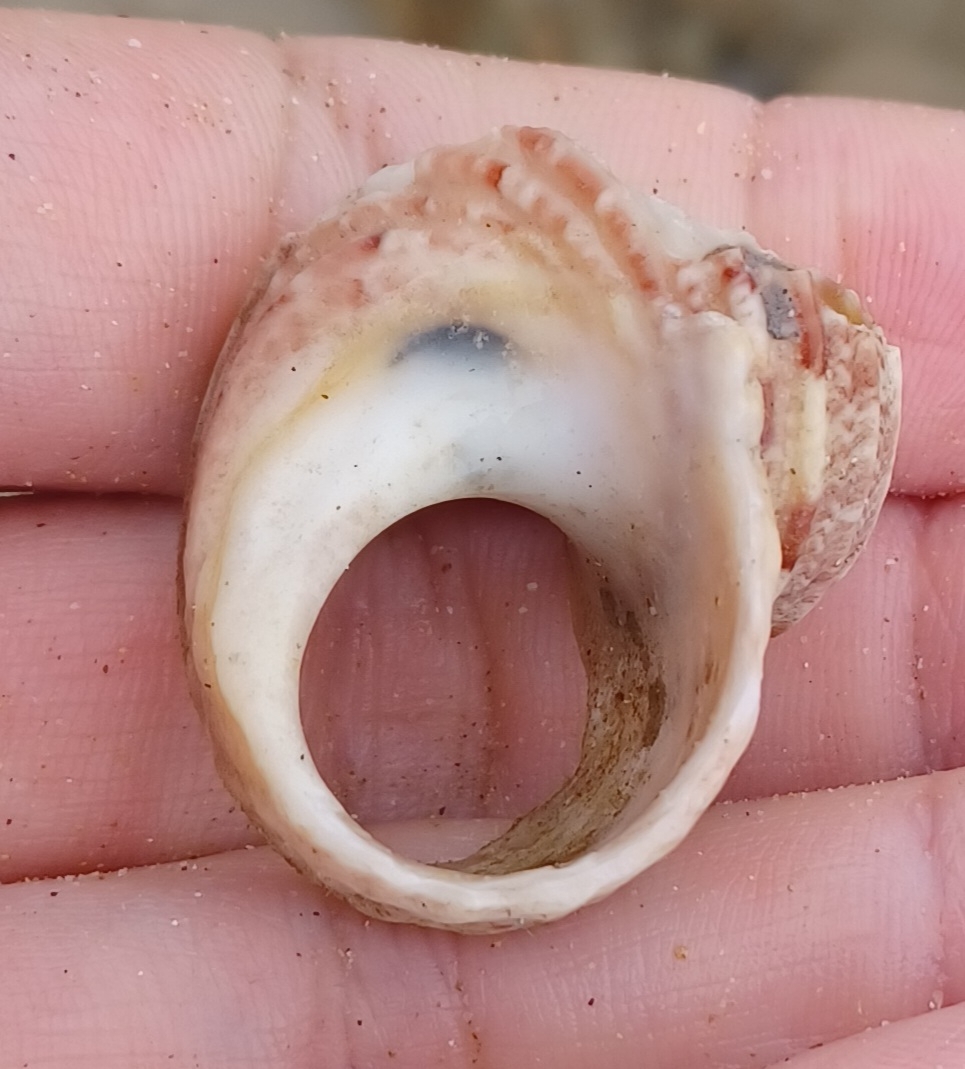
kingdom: Animalia
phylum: Mollusca
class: Gastropoda
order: Trochida
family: Turbinidae
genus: Turbo
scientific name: Turbo gruneri
